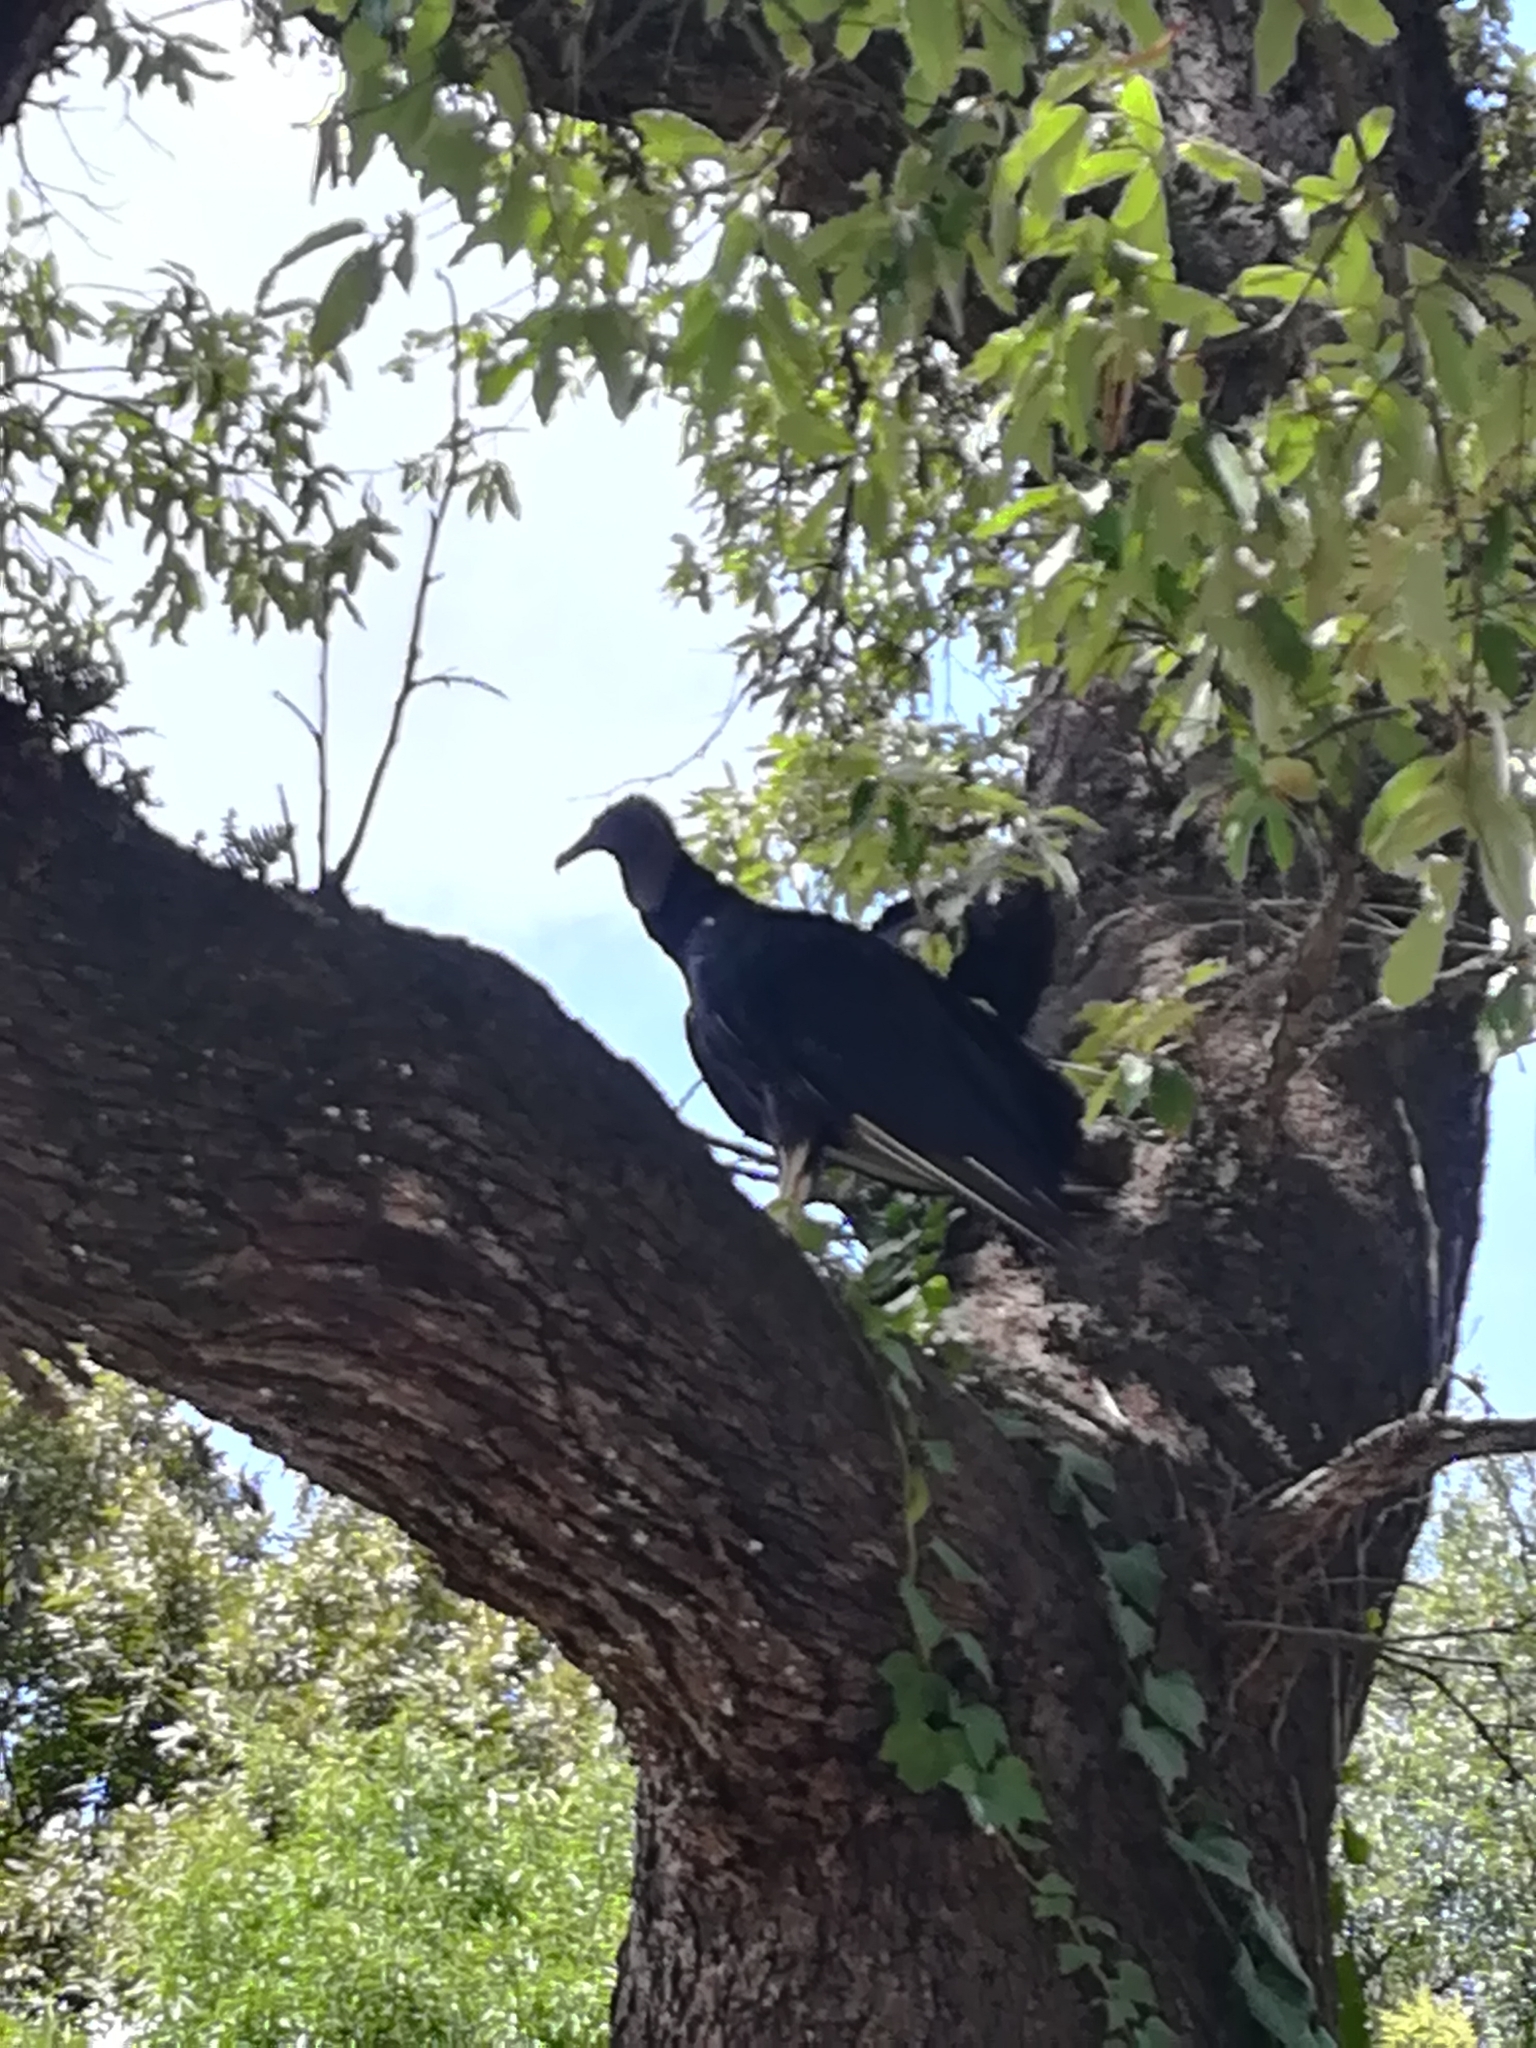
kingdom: Animalia
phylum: Chordata
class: Aves
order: Accipitriformes
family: Cathartidae
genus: Coragyps
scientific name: Coragyps atratus
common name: Black vulture
